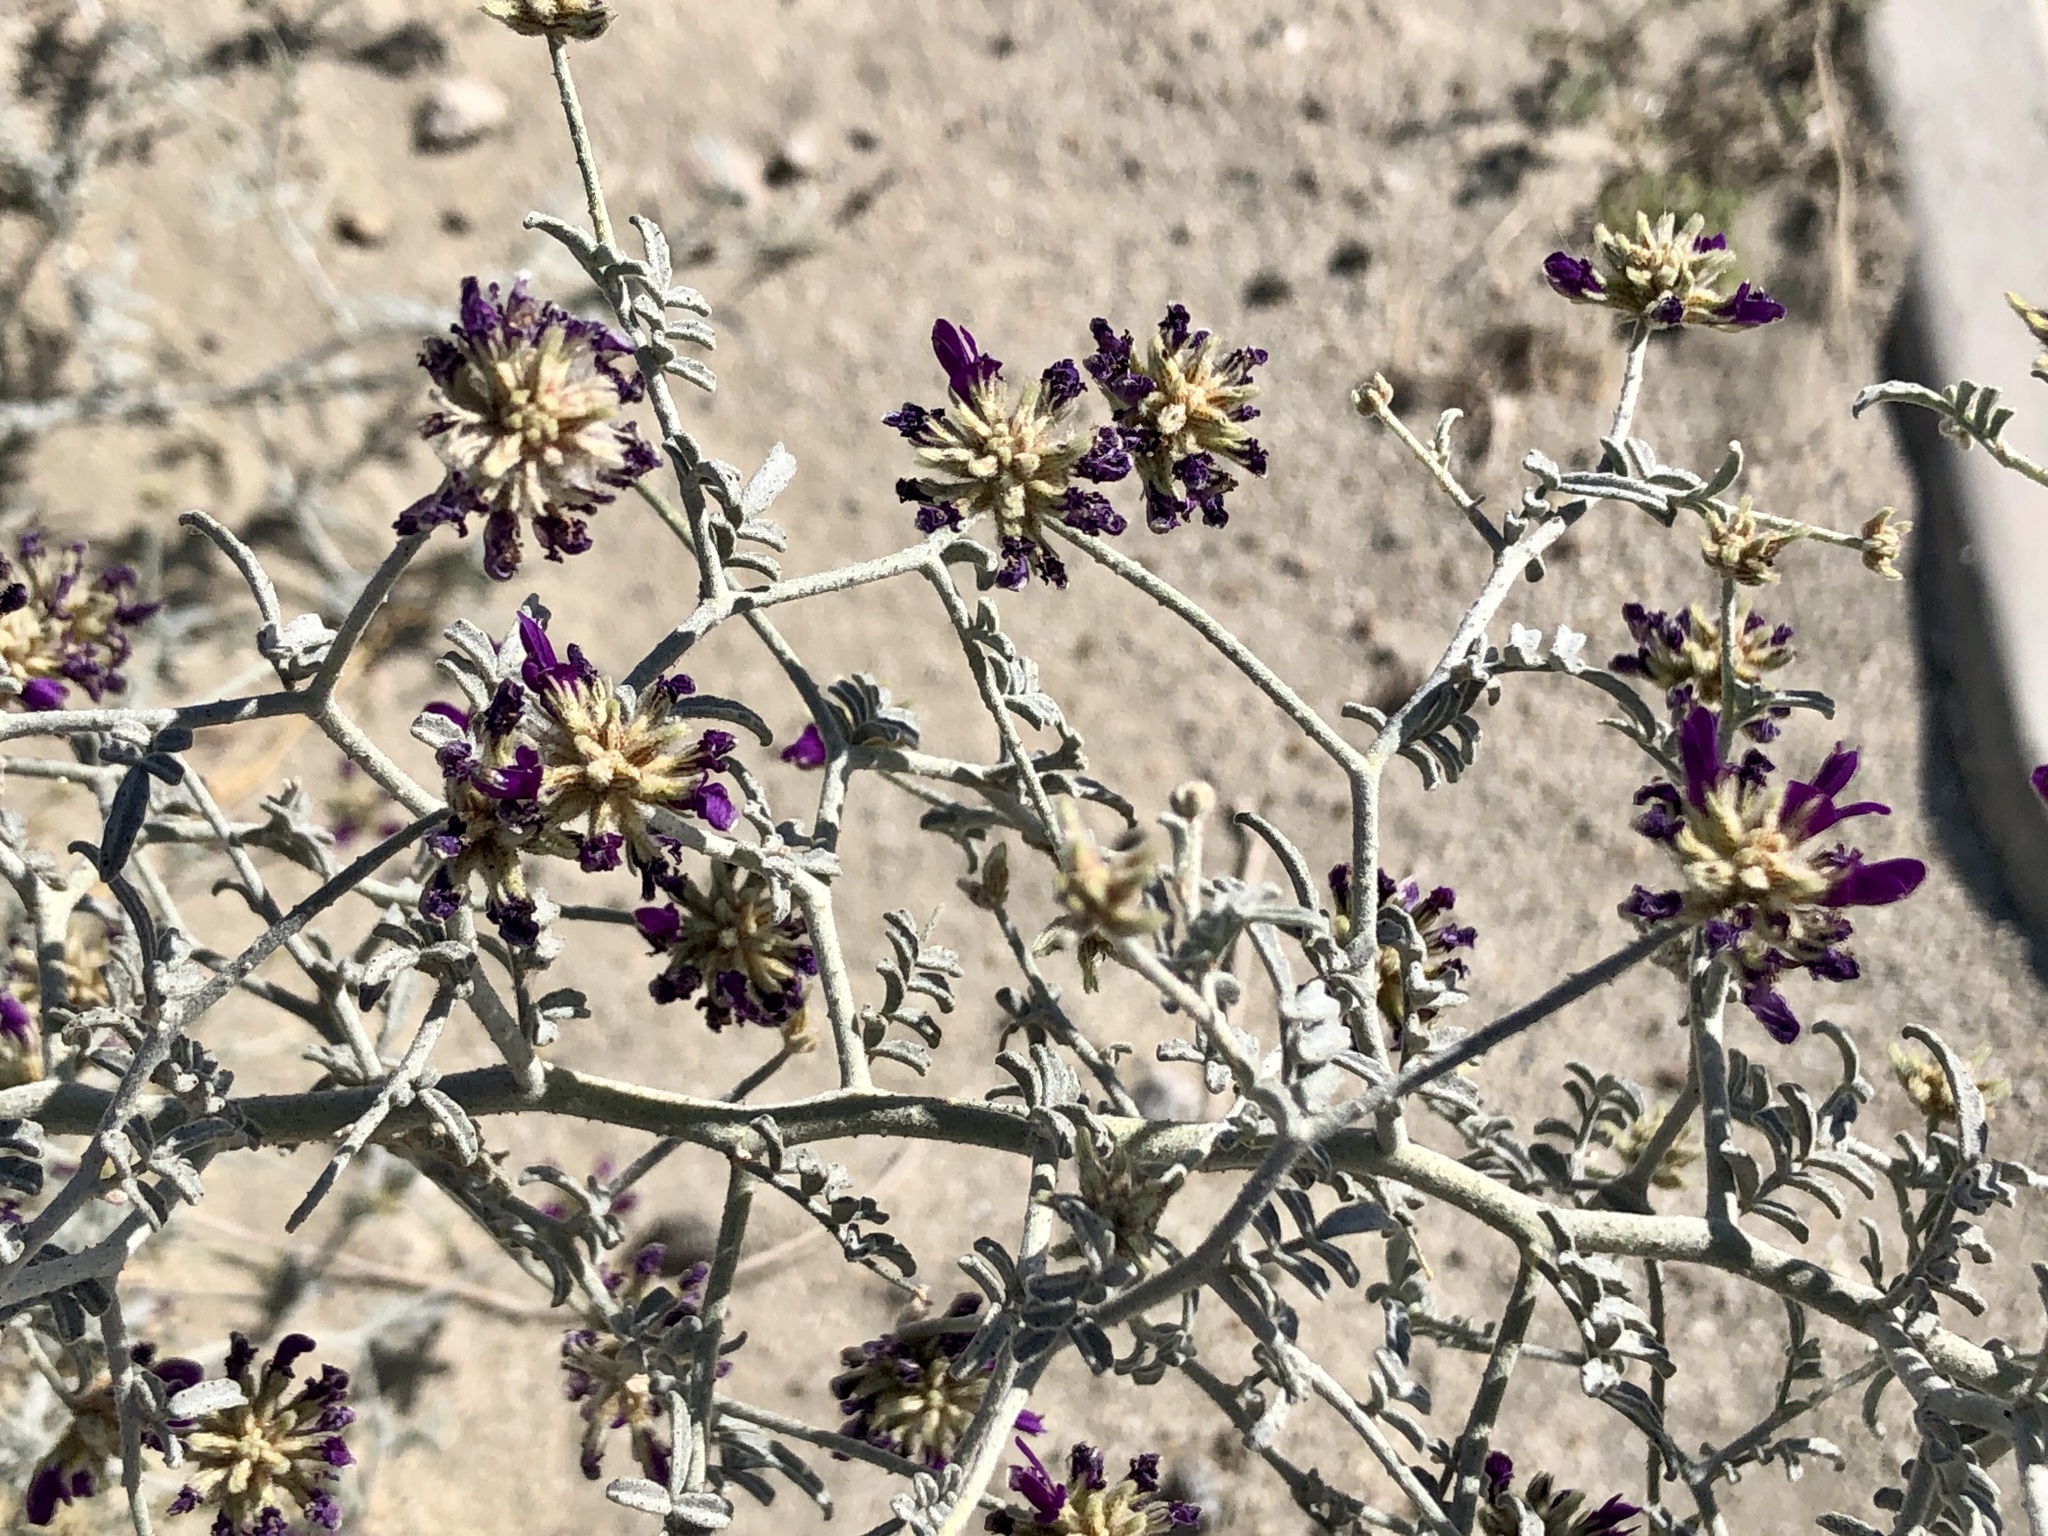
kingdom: Plantae
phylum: Tracheophyta
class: Magnoliopsida
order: Fabales
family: Fabaceae
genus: Psorothamnus
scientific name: Psorothamnus emoryi
